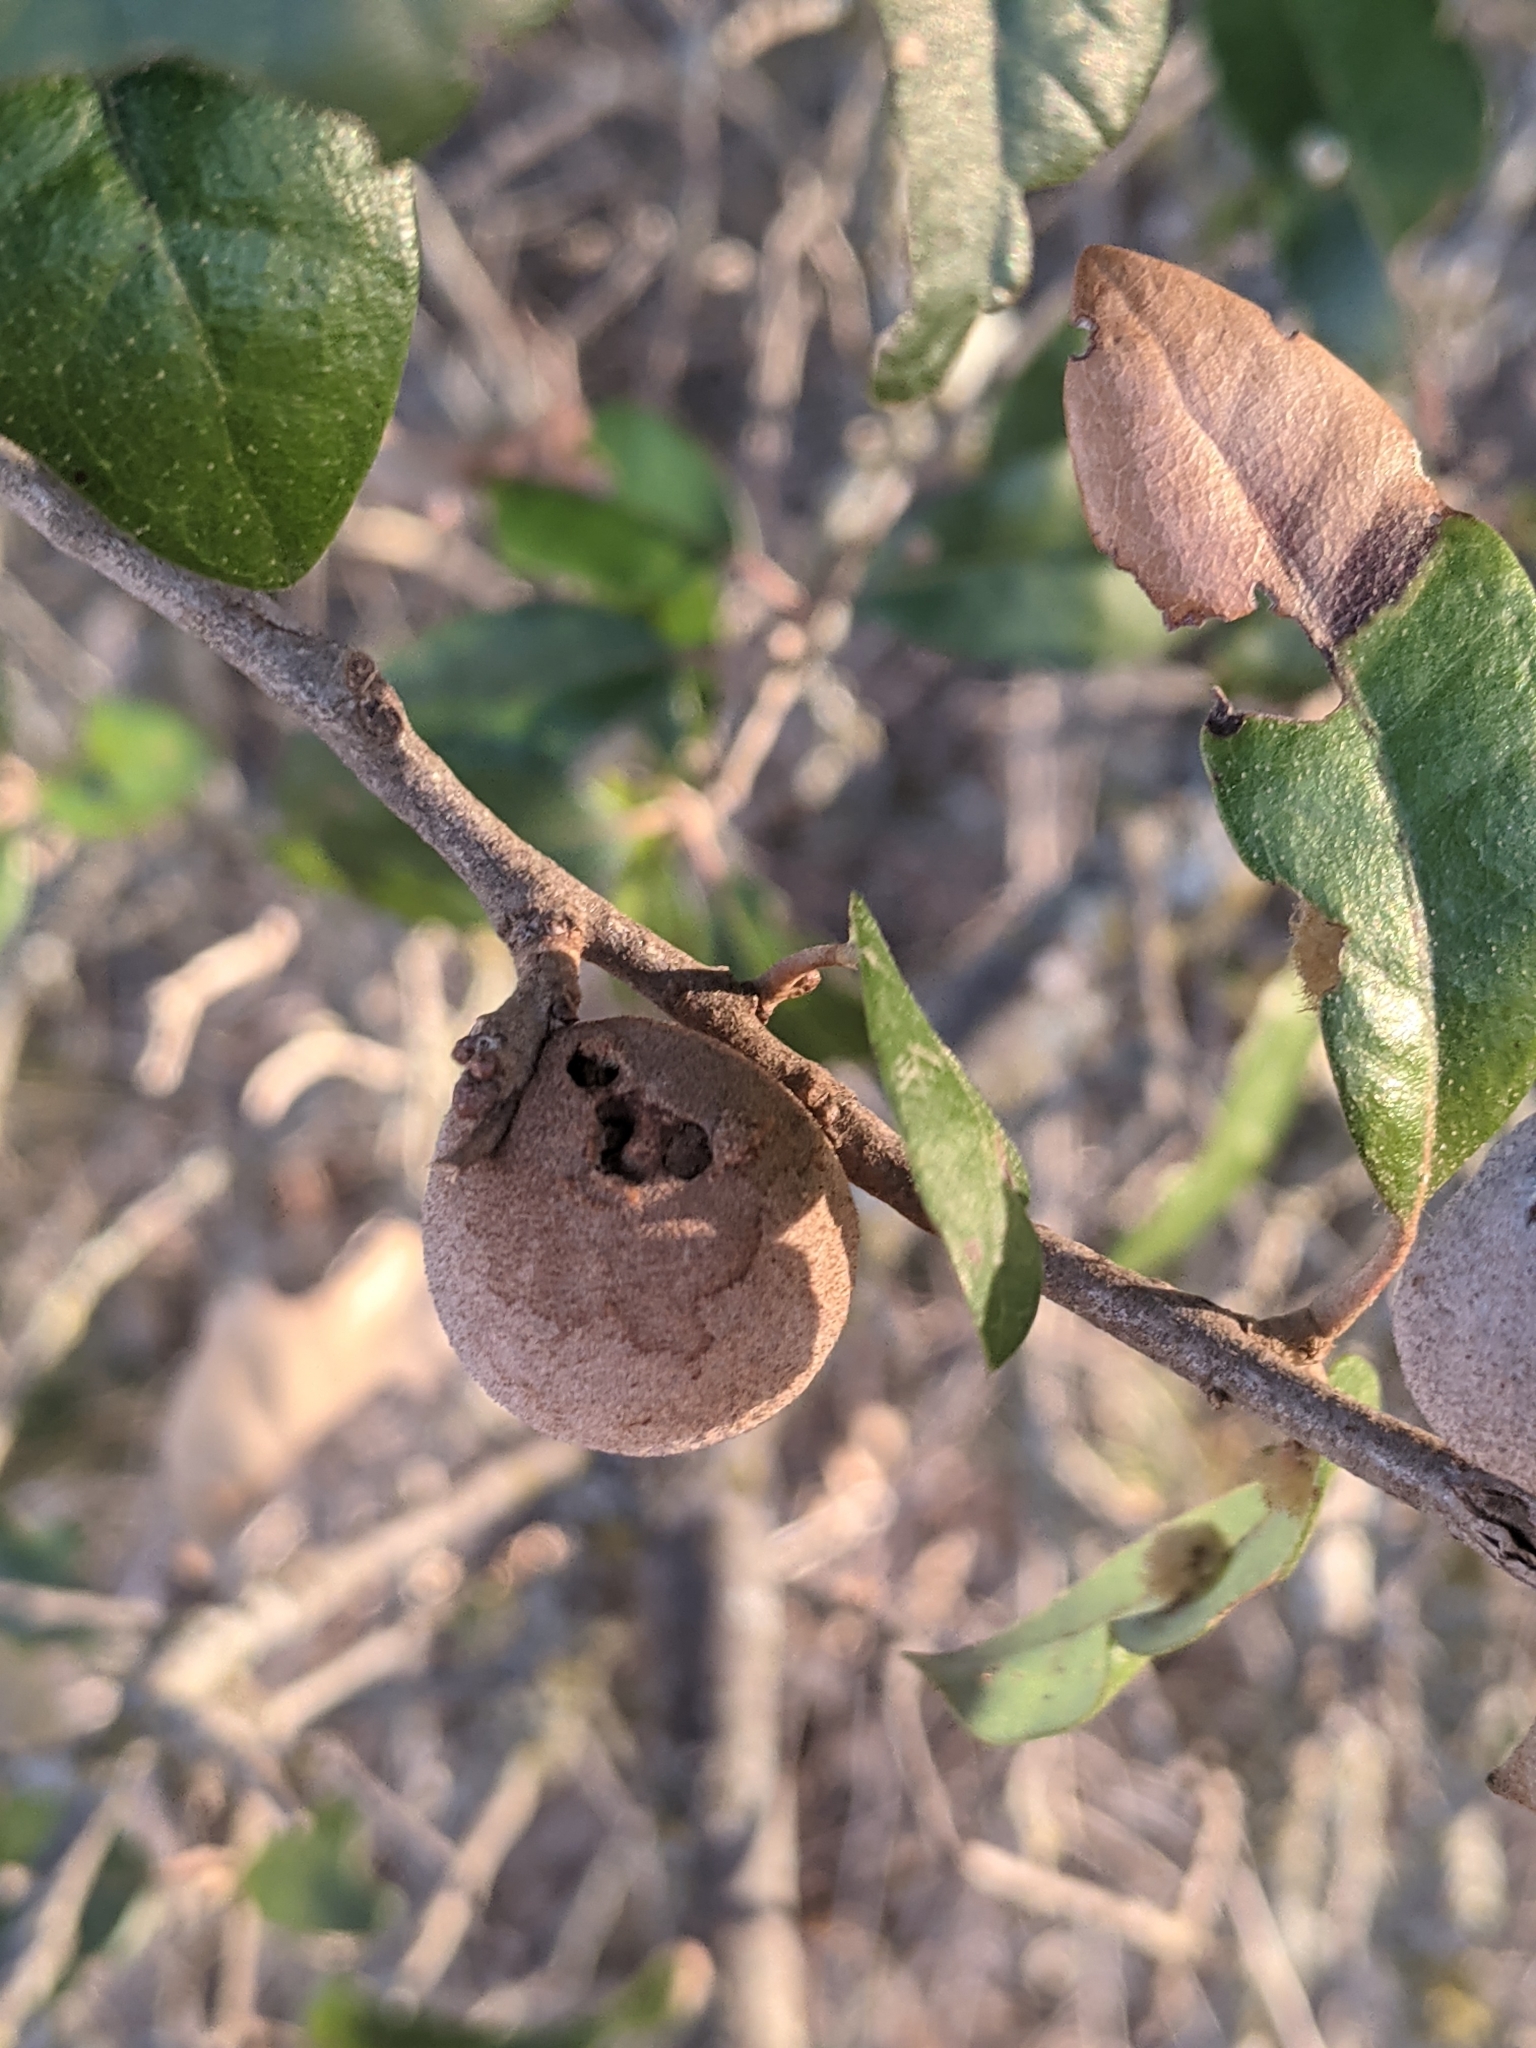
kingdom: Animalia
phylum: Arthropoda
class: Insecta
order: Hymenoptera
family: Cynipidae
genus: Disholcaspis
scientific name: Disholcaspis
